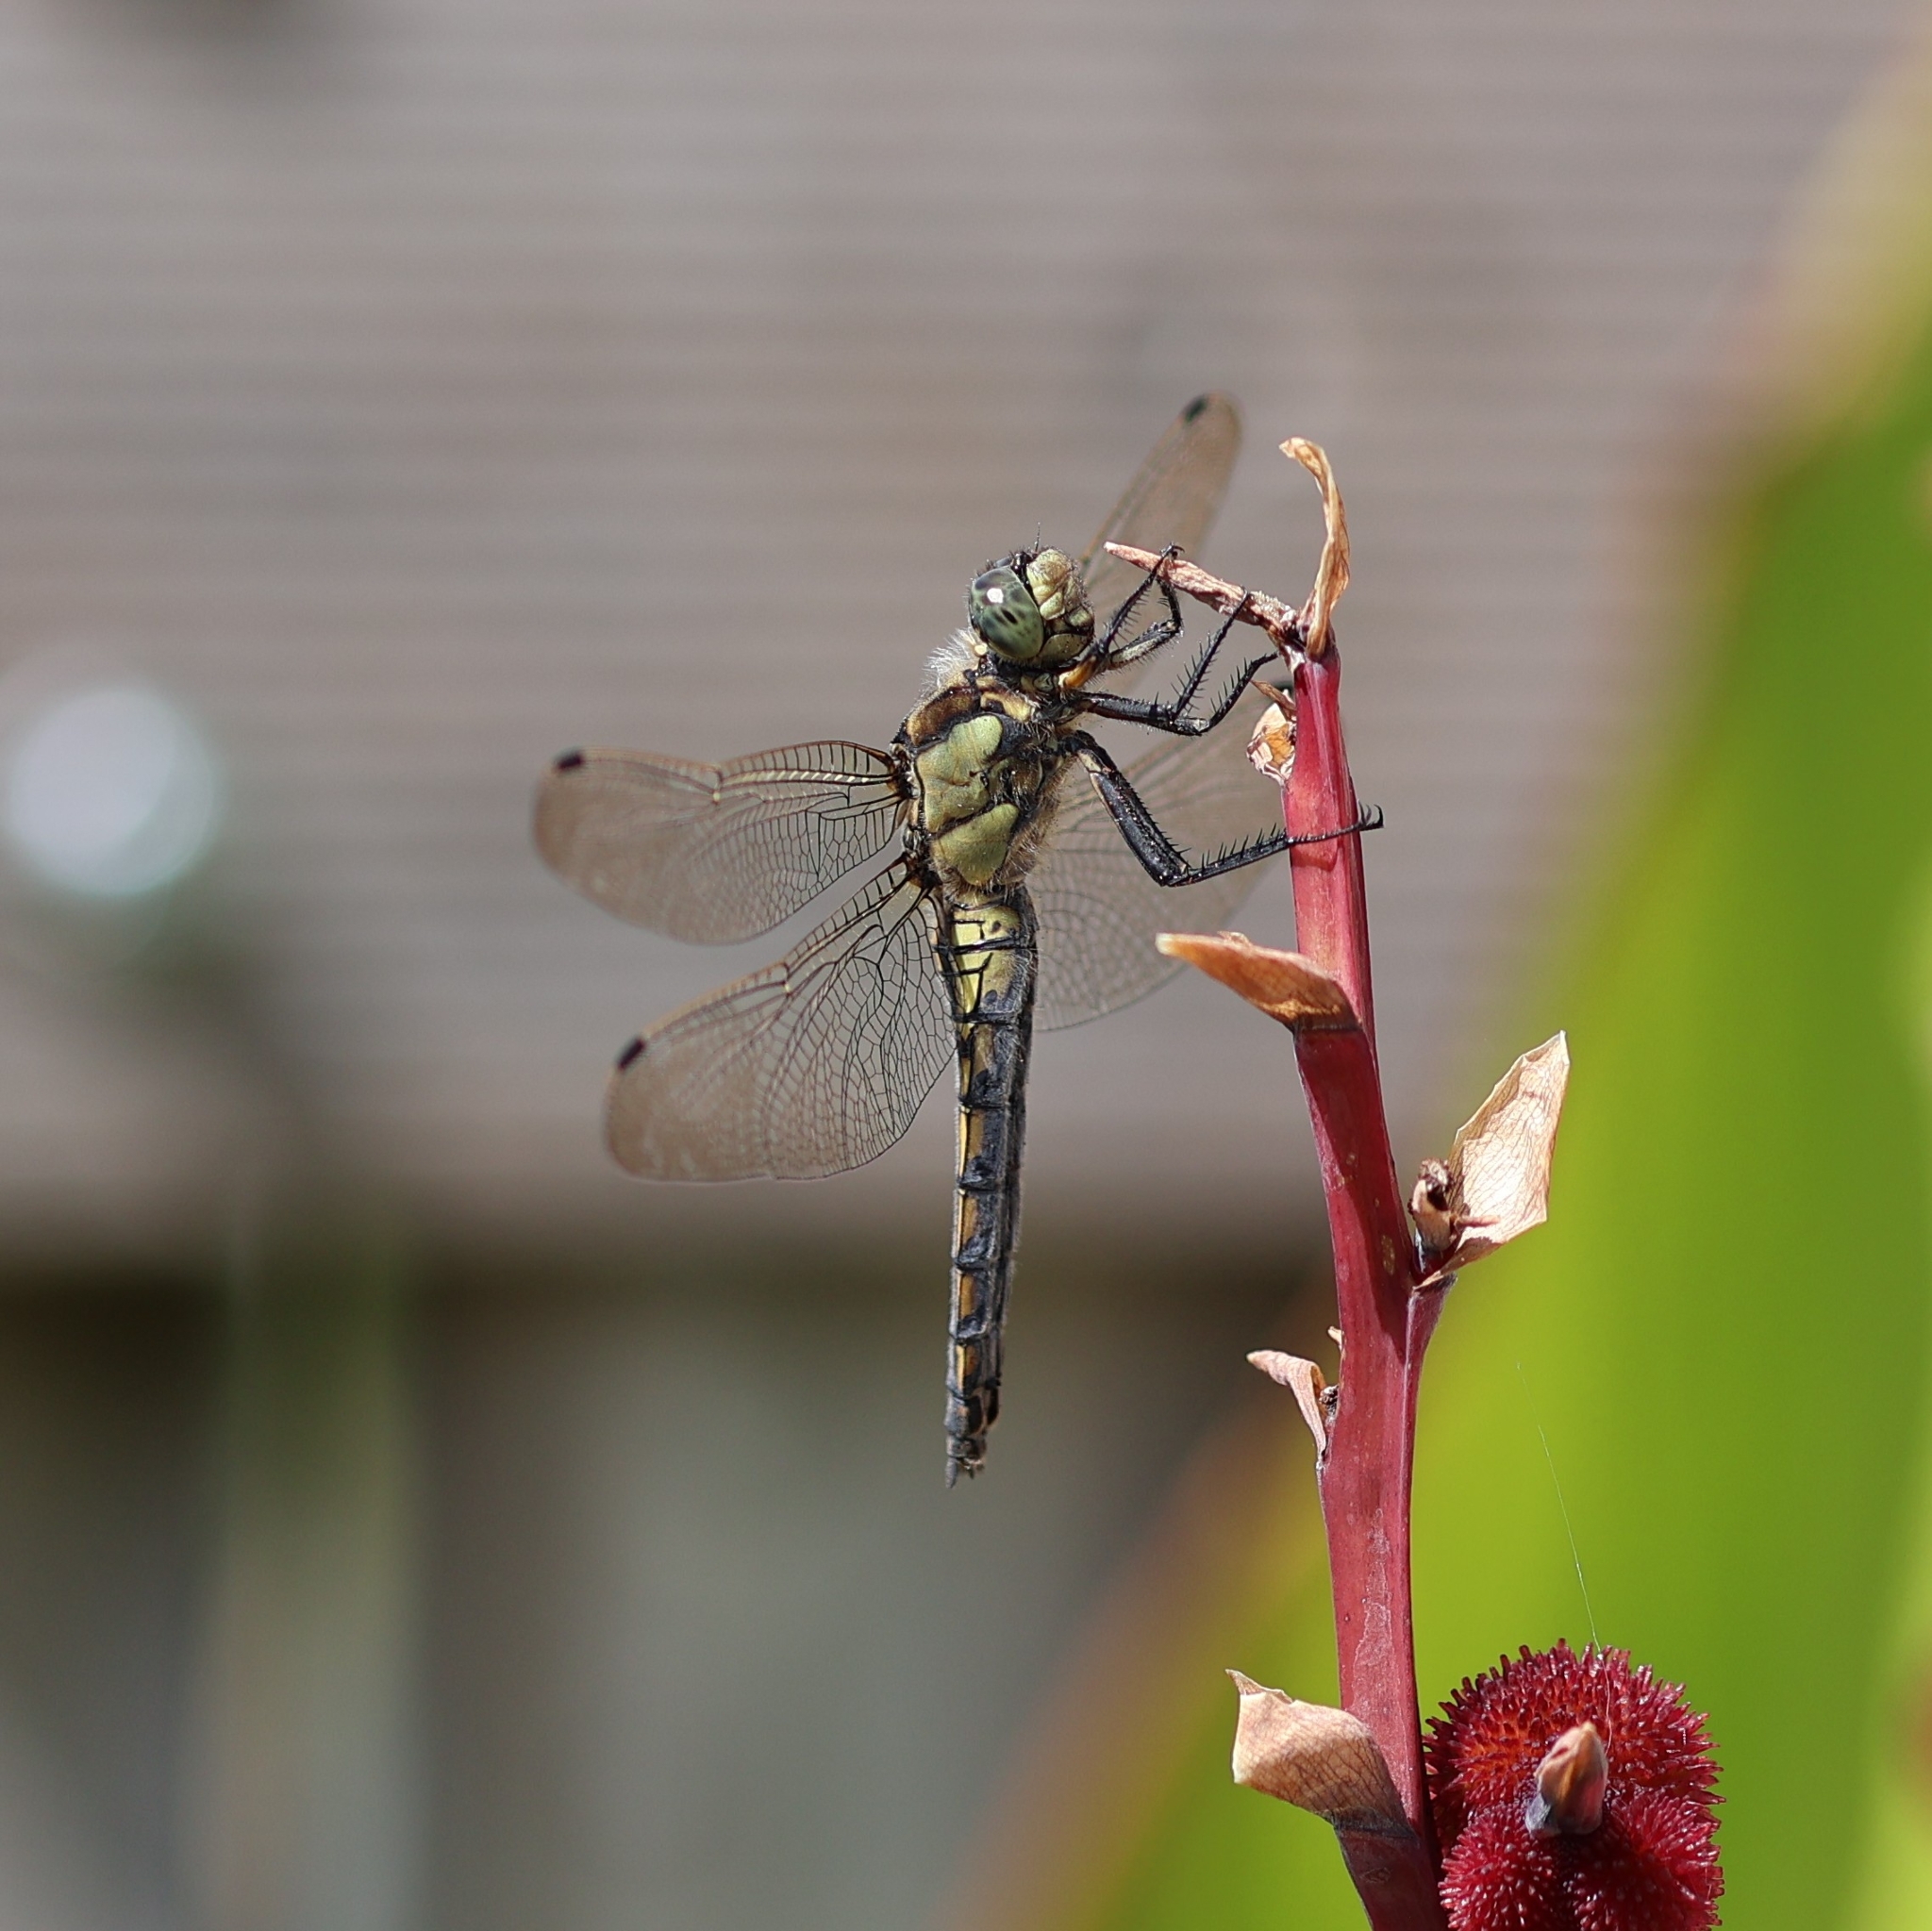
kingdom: Animalia
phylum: Arthropoda
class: Insecta
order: Odonata
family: Libellulidae
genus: Orthetrum
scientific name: Orthetrum cancellatum
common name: Black-tailed skimmer
